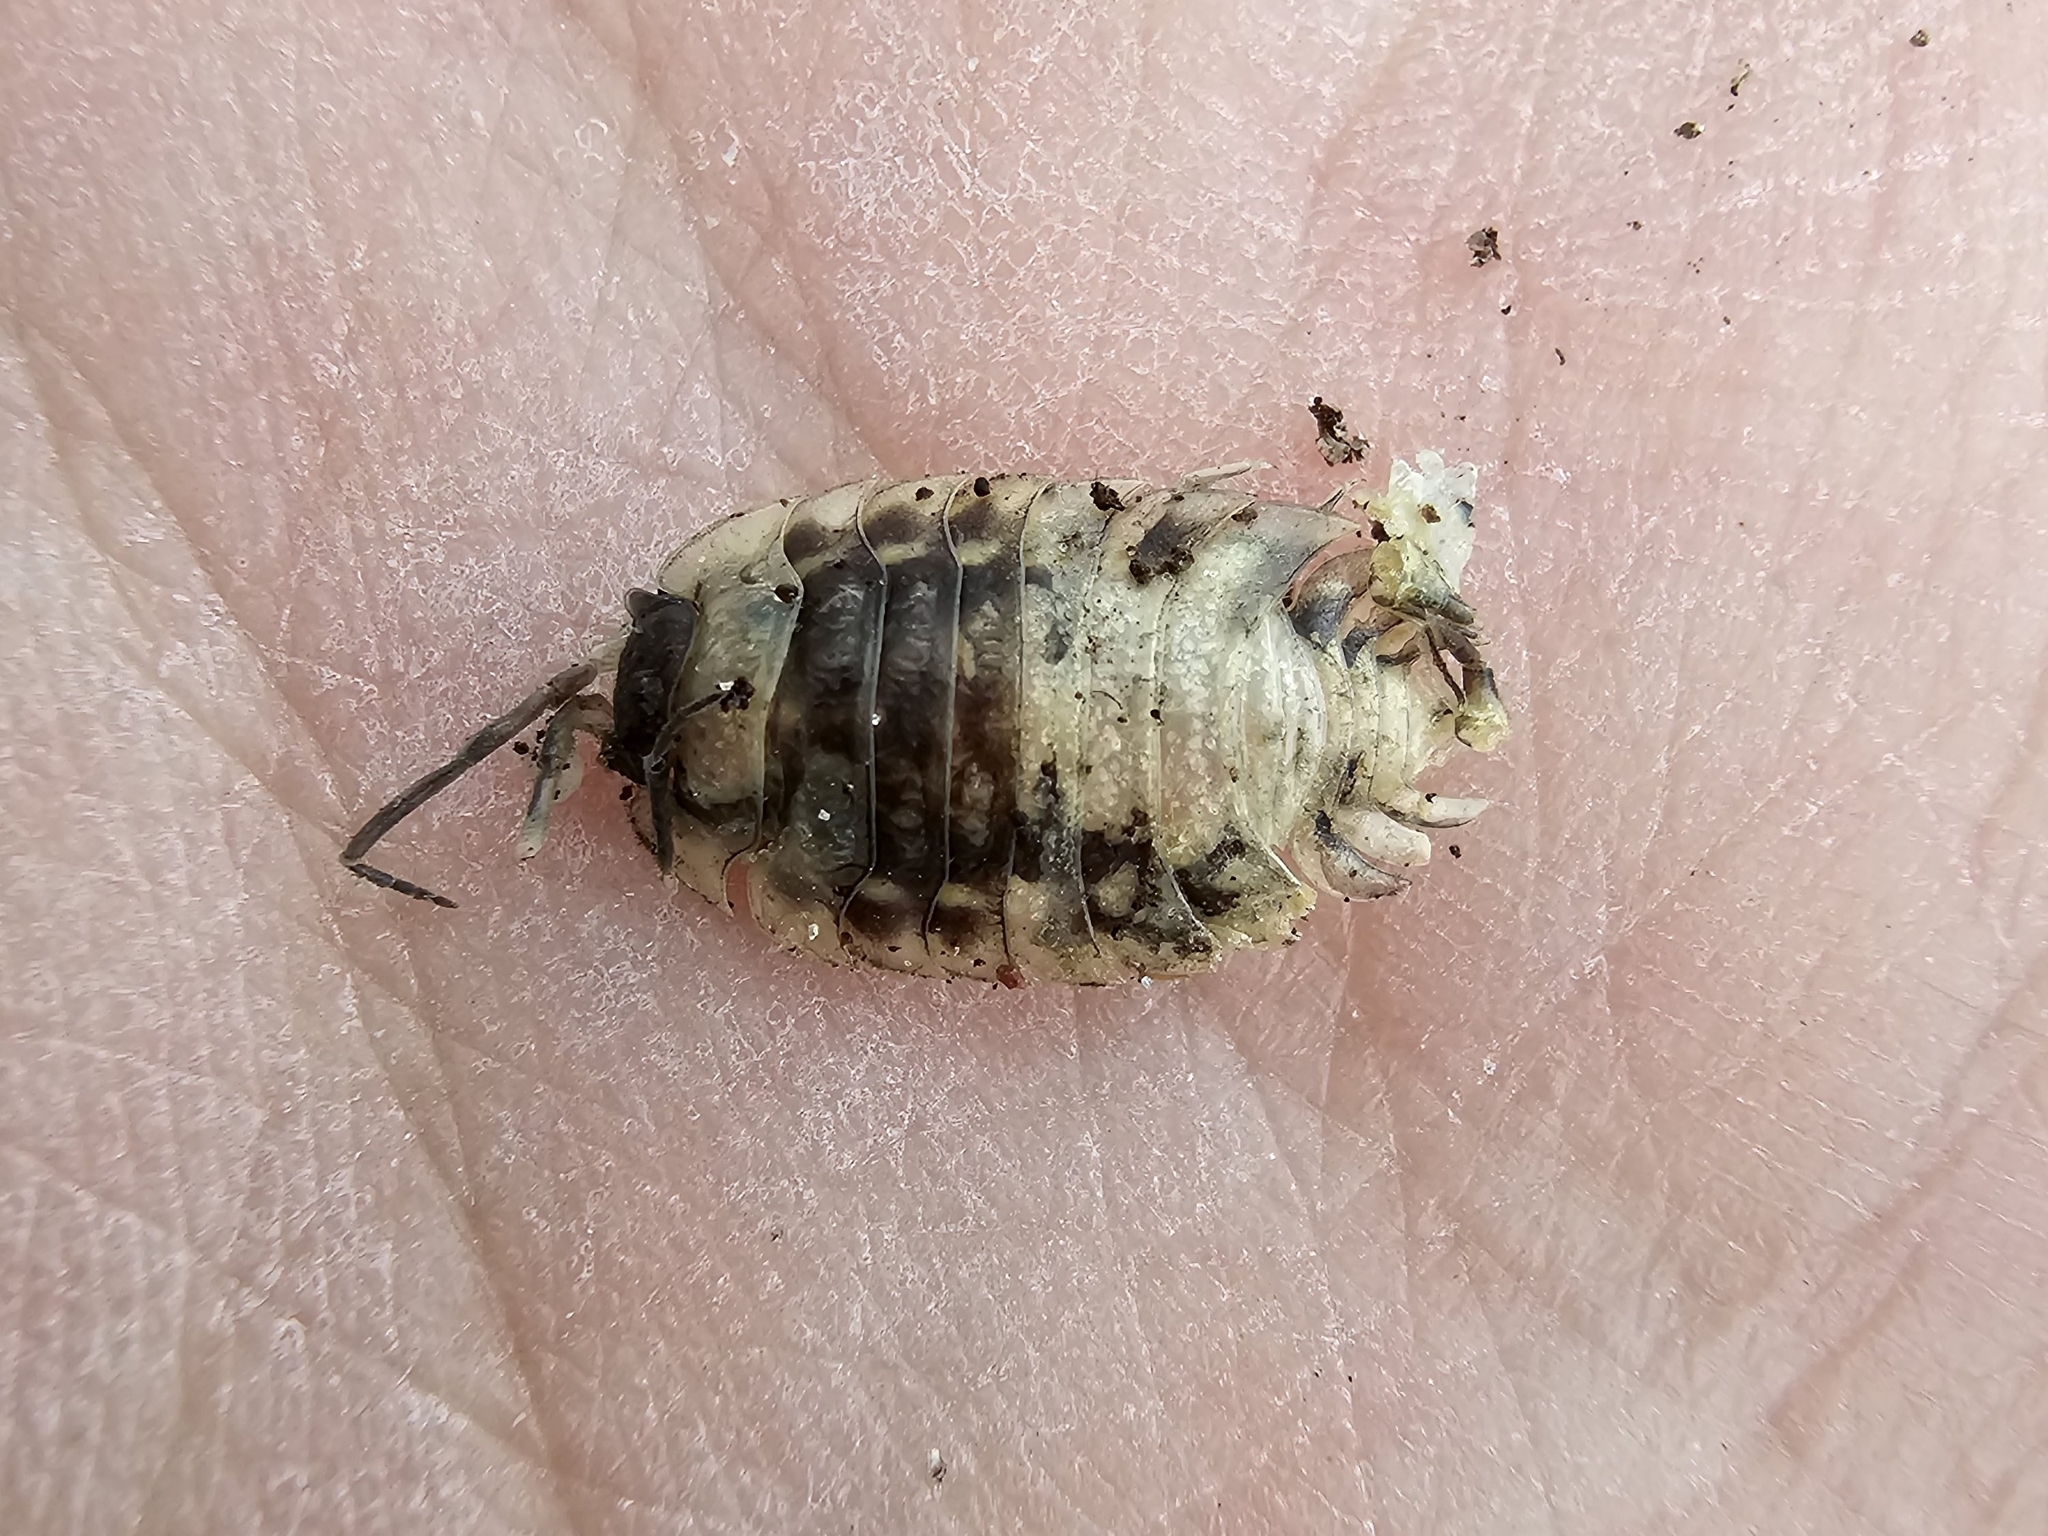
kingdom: Animalia
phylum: Arthropoda
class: Malacostraca
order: Isopoda
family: Oniscidae
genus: Oniscus
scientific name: Oniscus asellus
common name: Common shiny woodlouse
